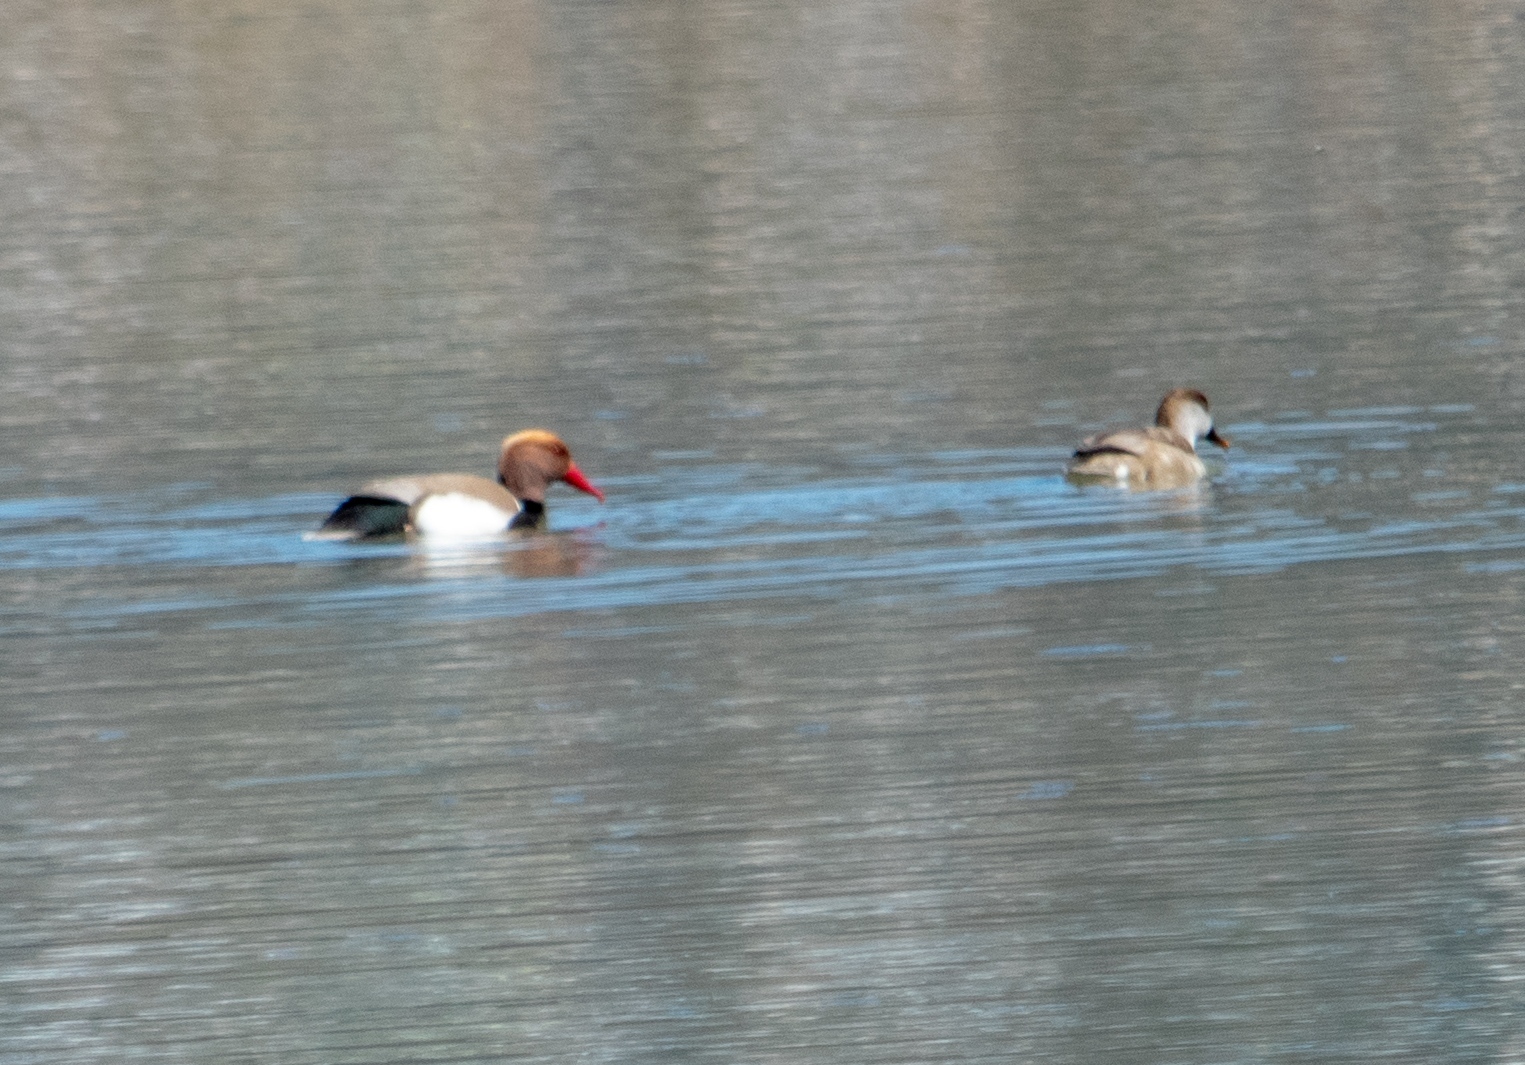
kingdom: Animalia
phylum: Chordata
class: Aves
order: Anseriformes
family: Anatidae
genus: Netta
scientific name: Netta rufina
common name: Red-crested pochard
